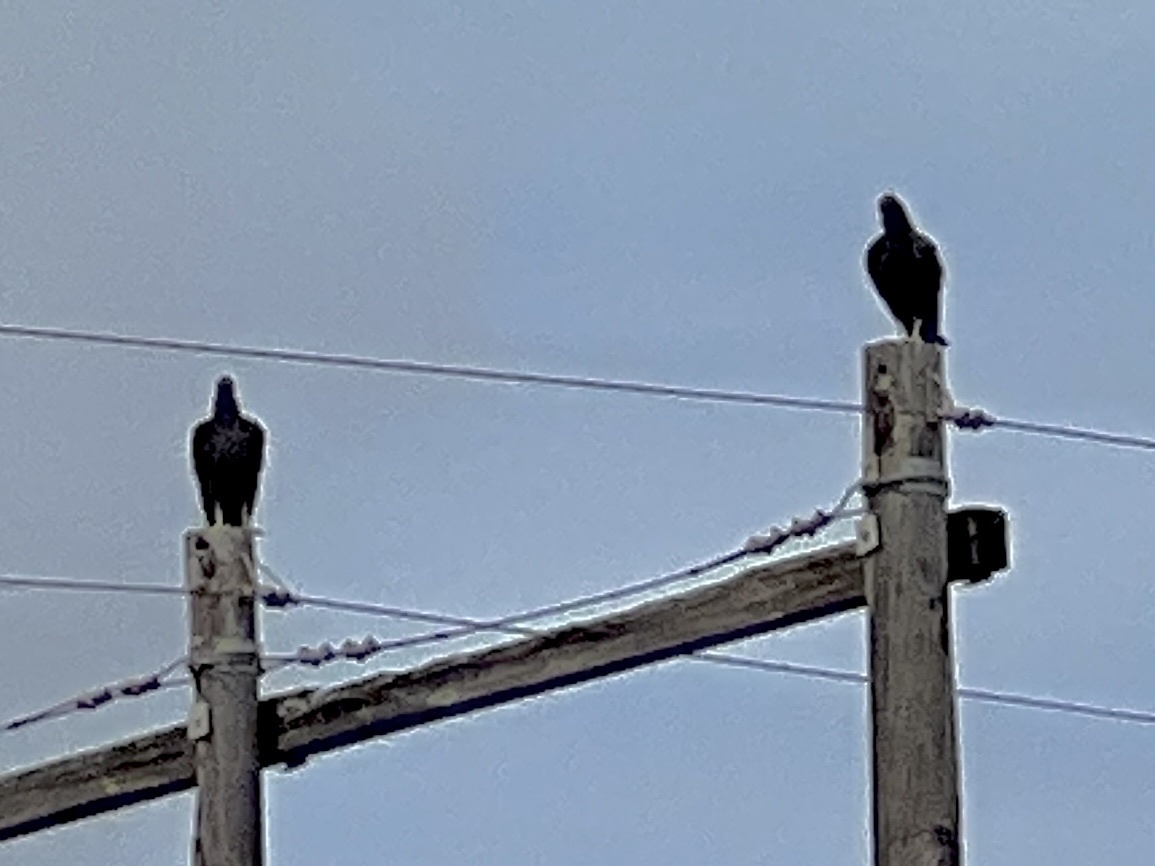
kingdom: Animalia
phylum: Chordata
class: Aves
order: Accipitriformes
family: Cathartidae
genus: Coragyps
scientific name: Coragyps atratus
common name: Black vulture
